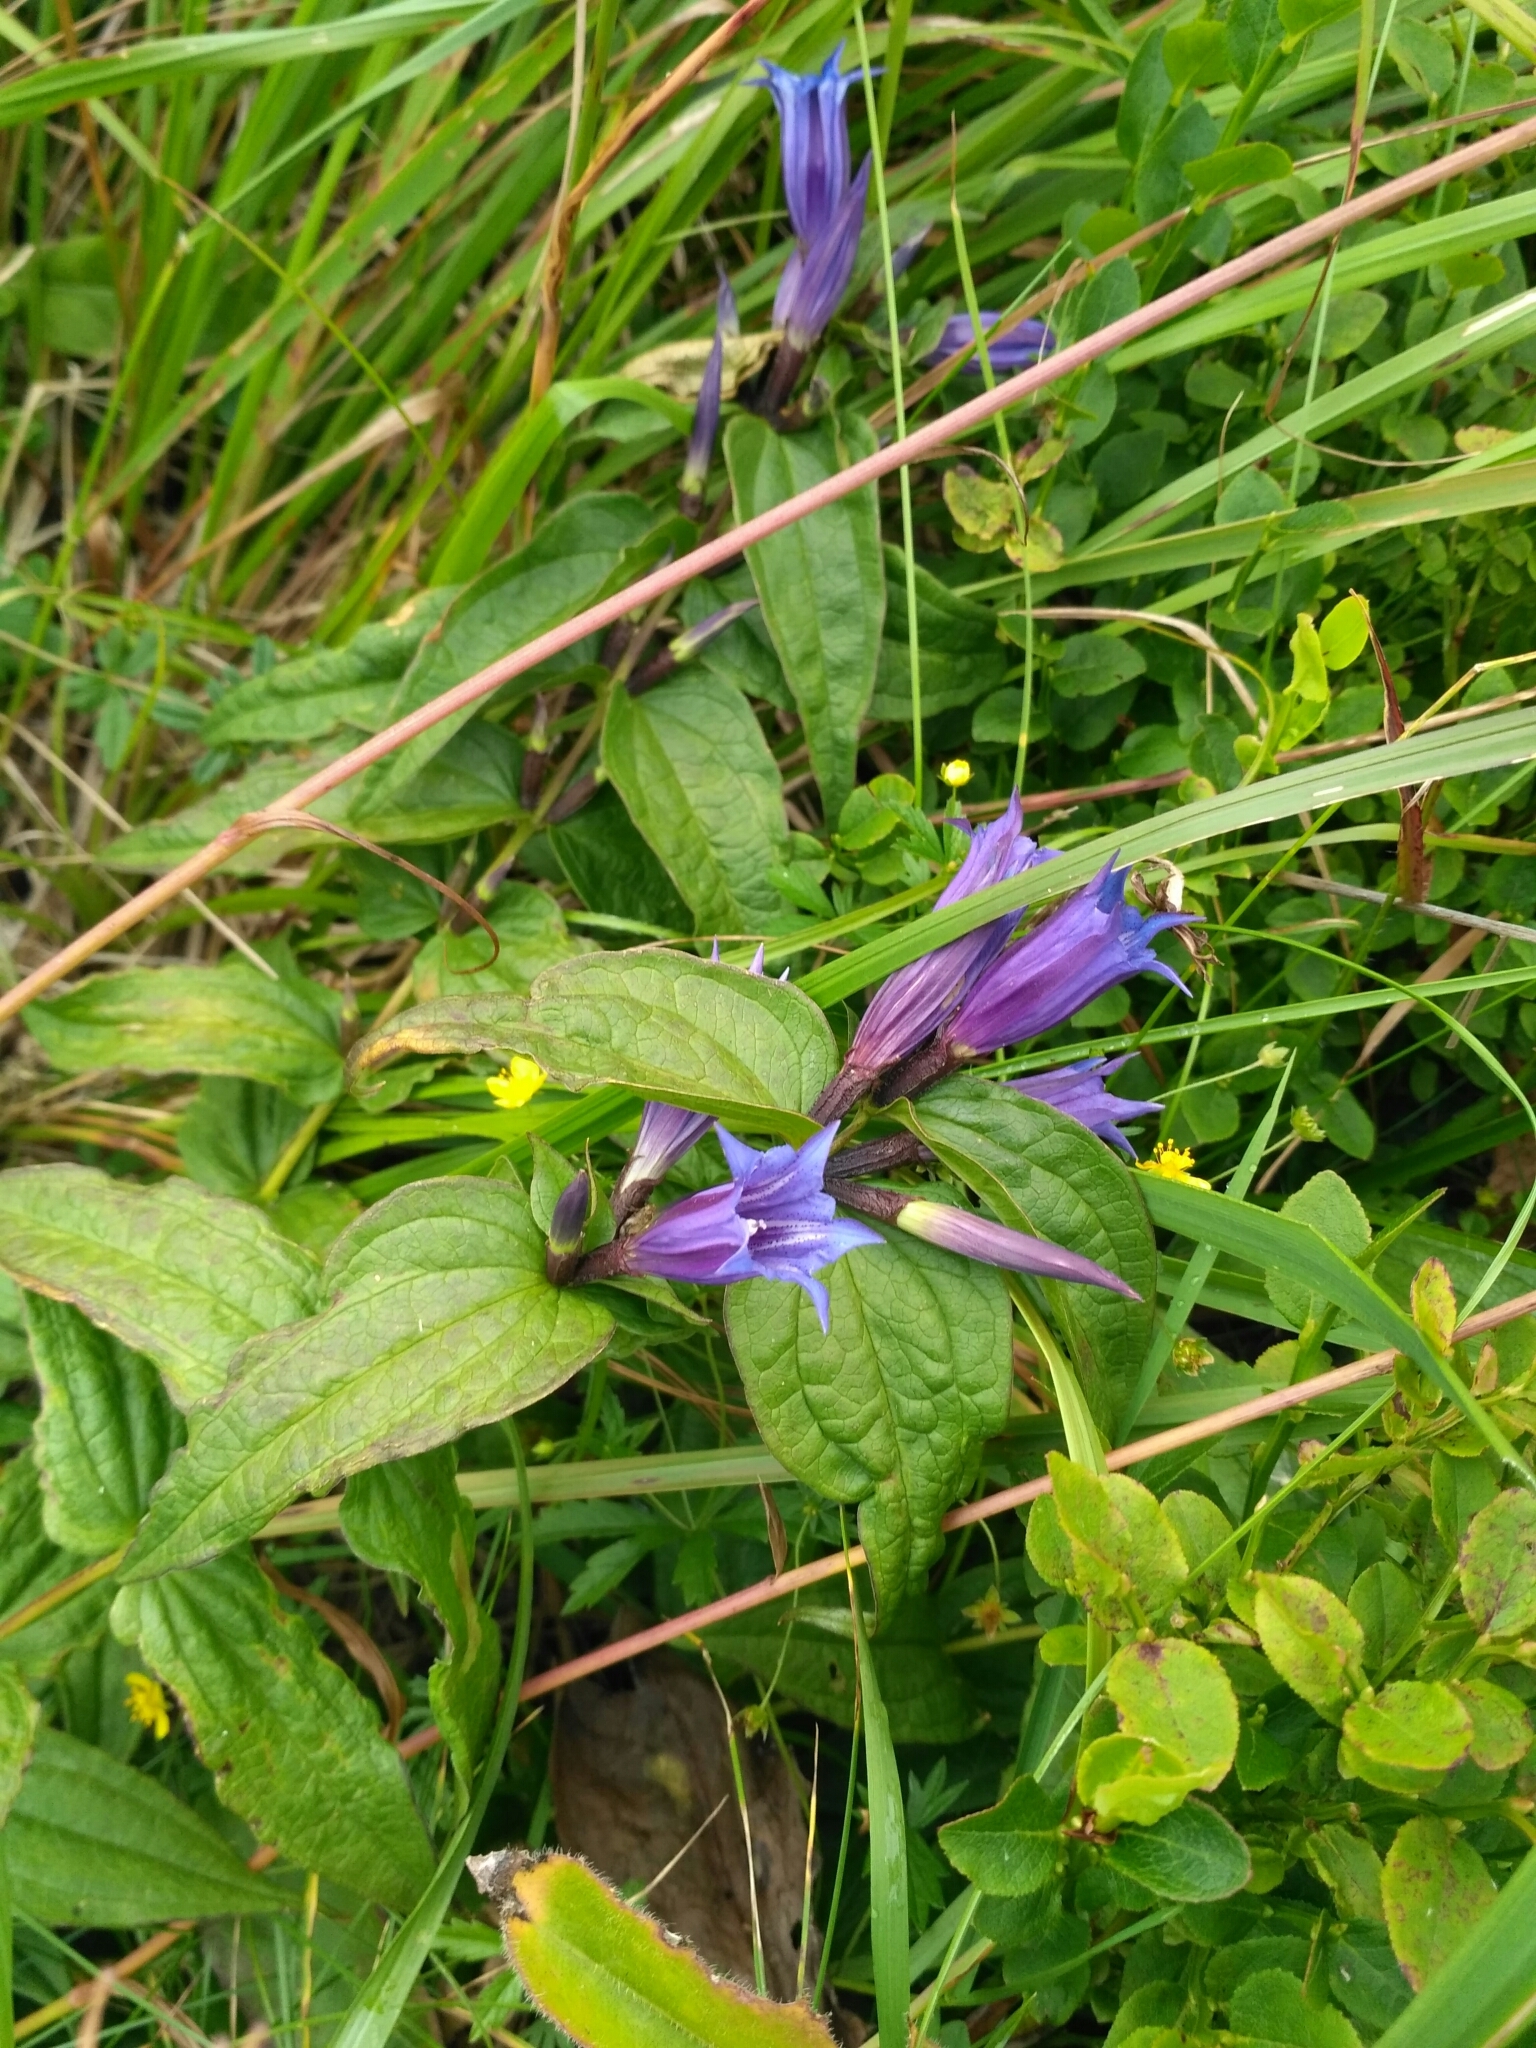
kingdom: Plantae
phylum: Tracheophyta
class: Magnoliopsida
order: Gentianales
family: Gentianaceae
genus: Gentiana
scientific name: Gentiana asclepiadea
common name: Willow gentian
